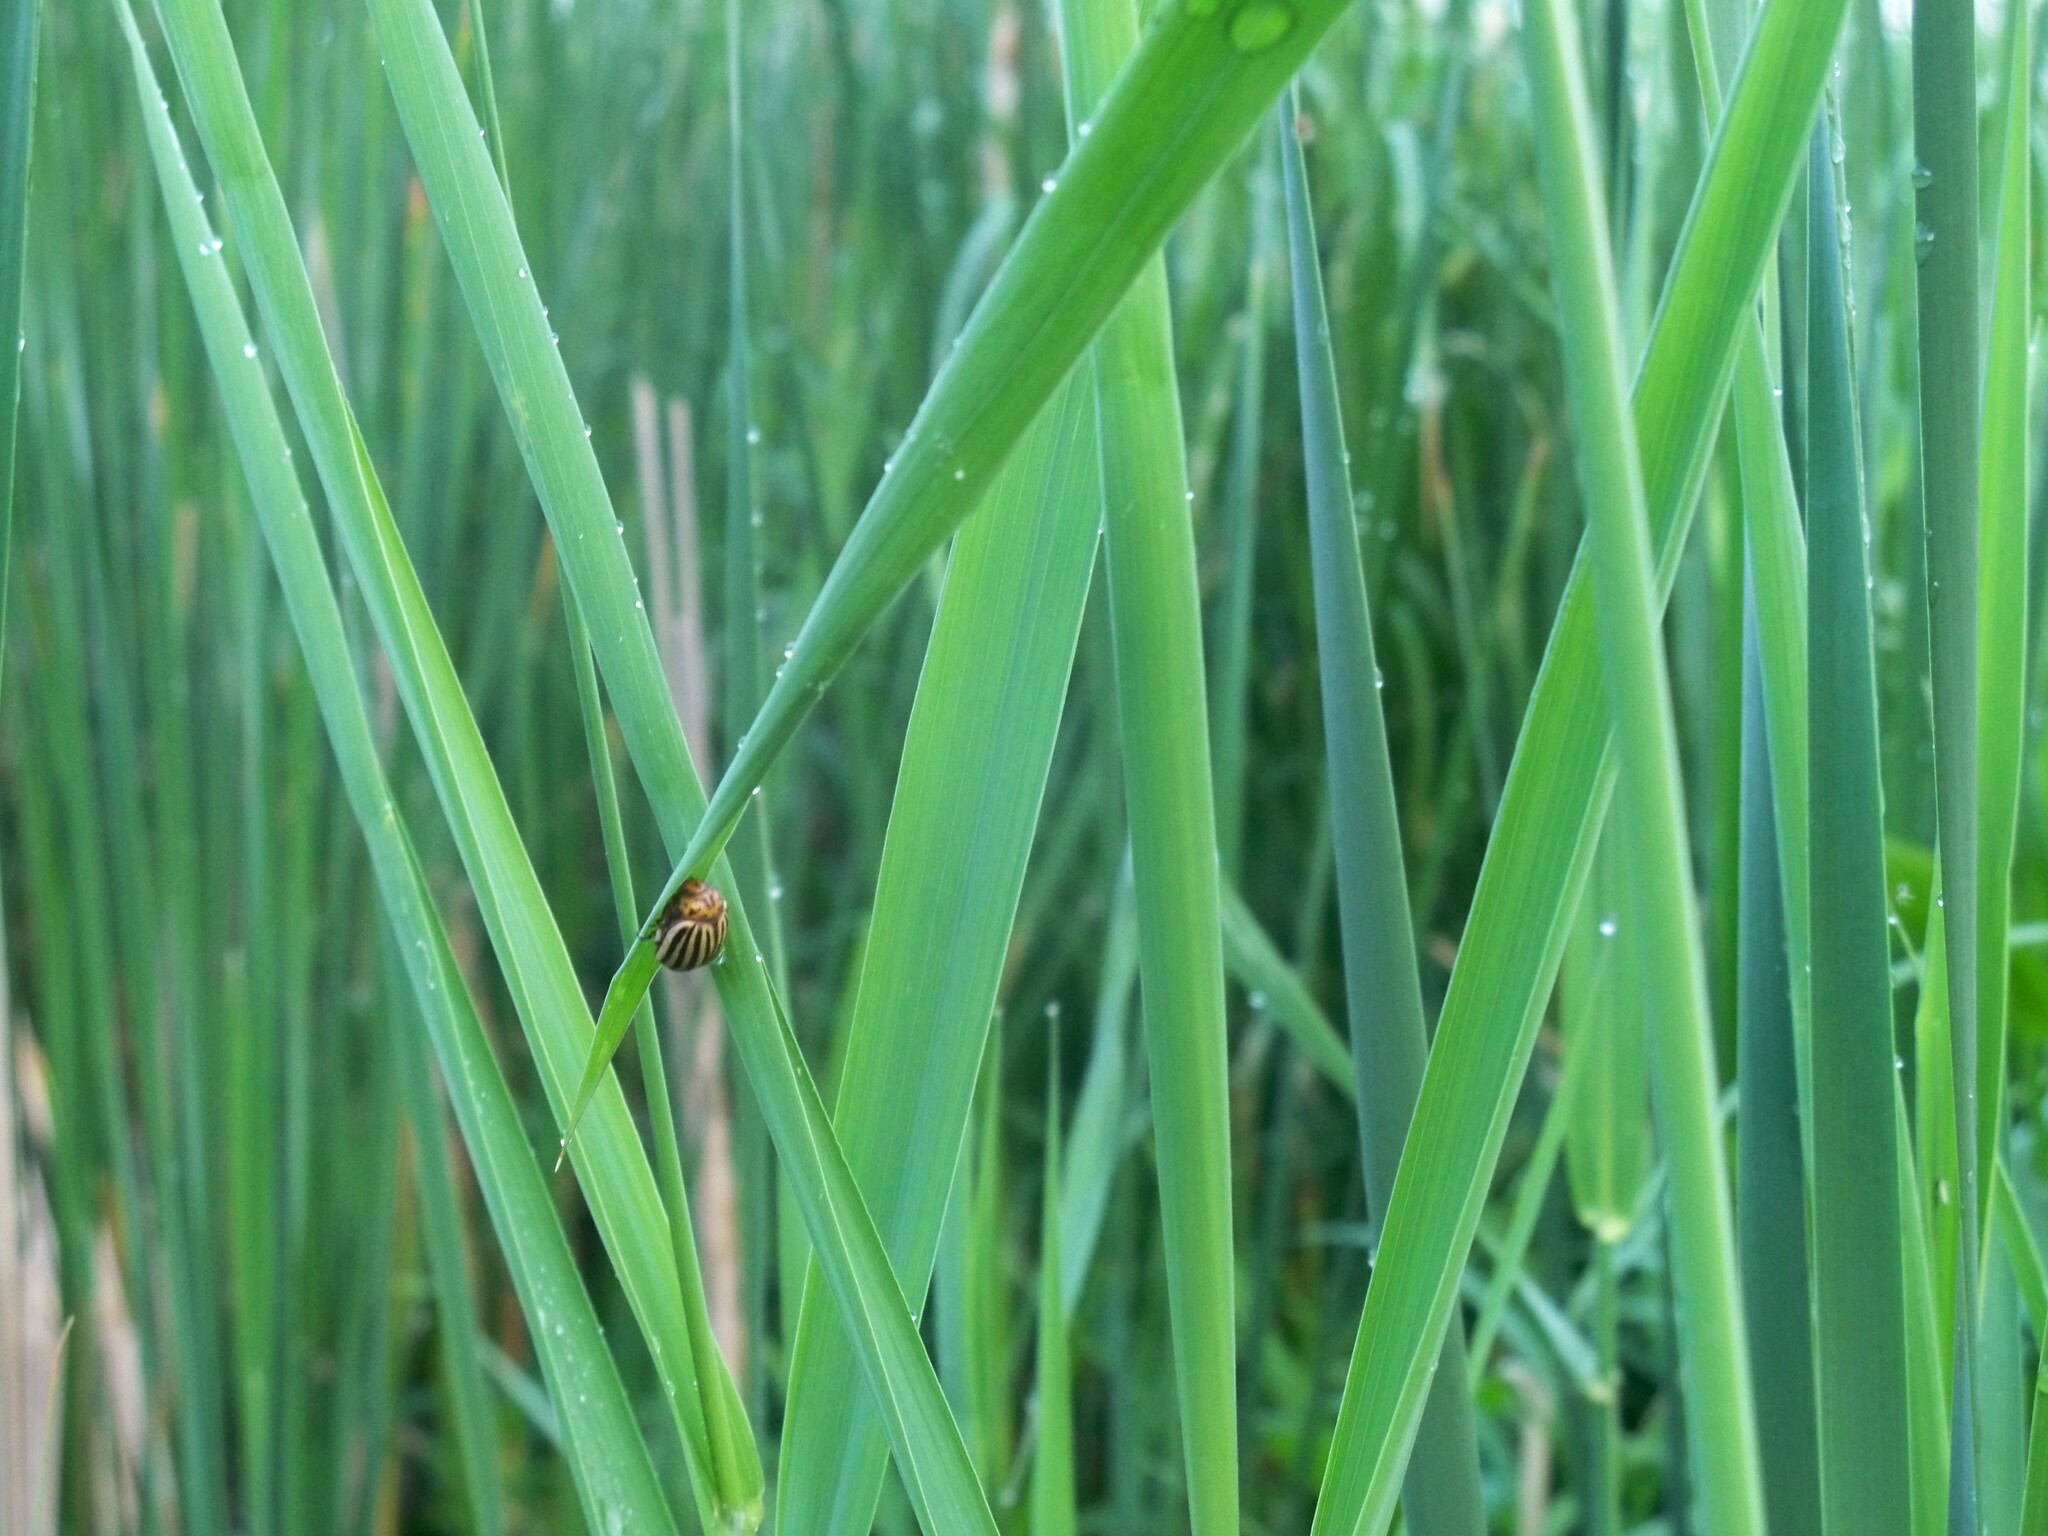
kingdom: Animalia
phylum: Arthropoda
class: Insecta
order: Coleoptera
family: Chrysomelidae
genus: Leptinotarsa
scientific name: Leptinotarsa decemlineata
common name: Colorado potato beetle
